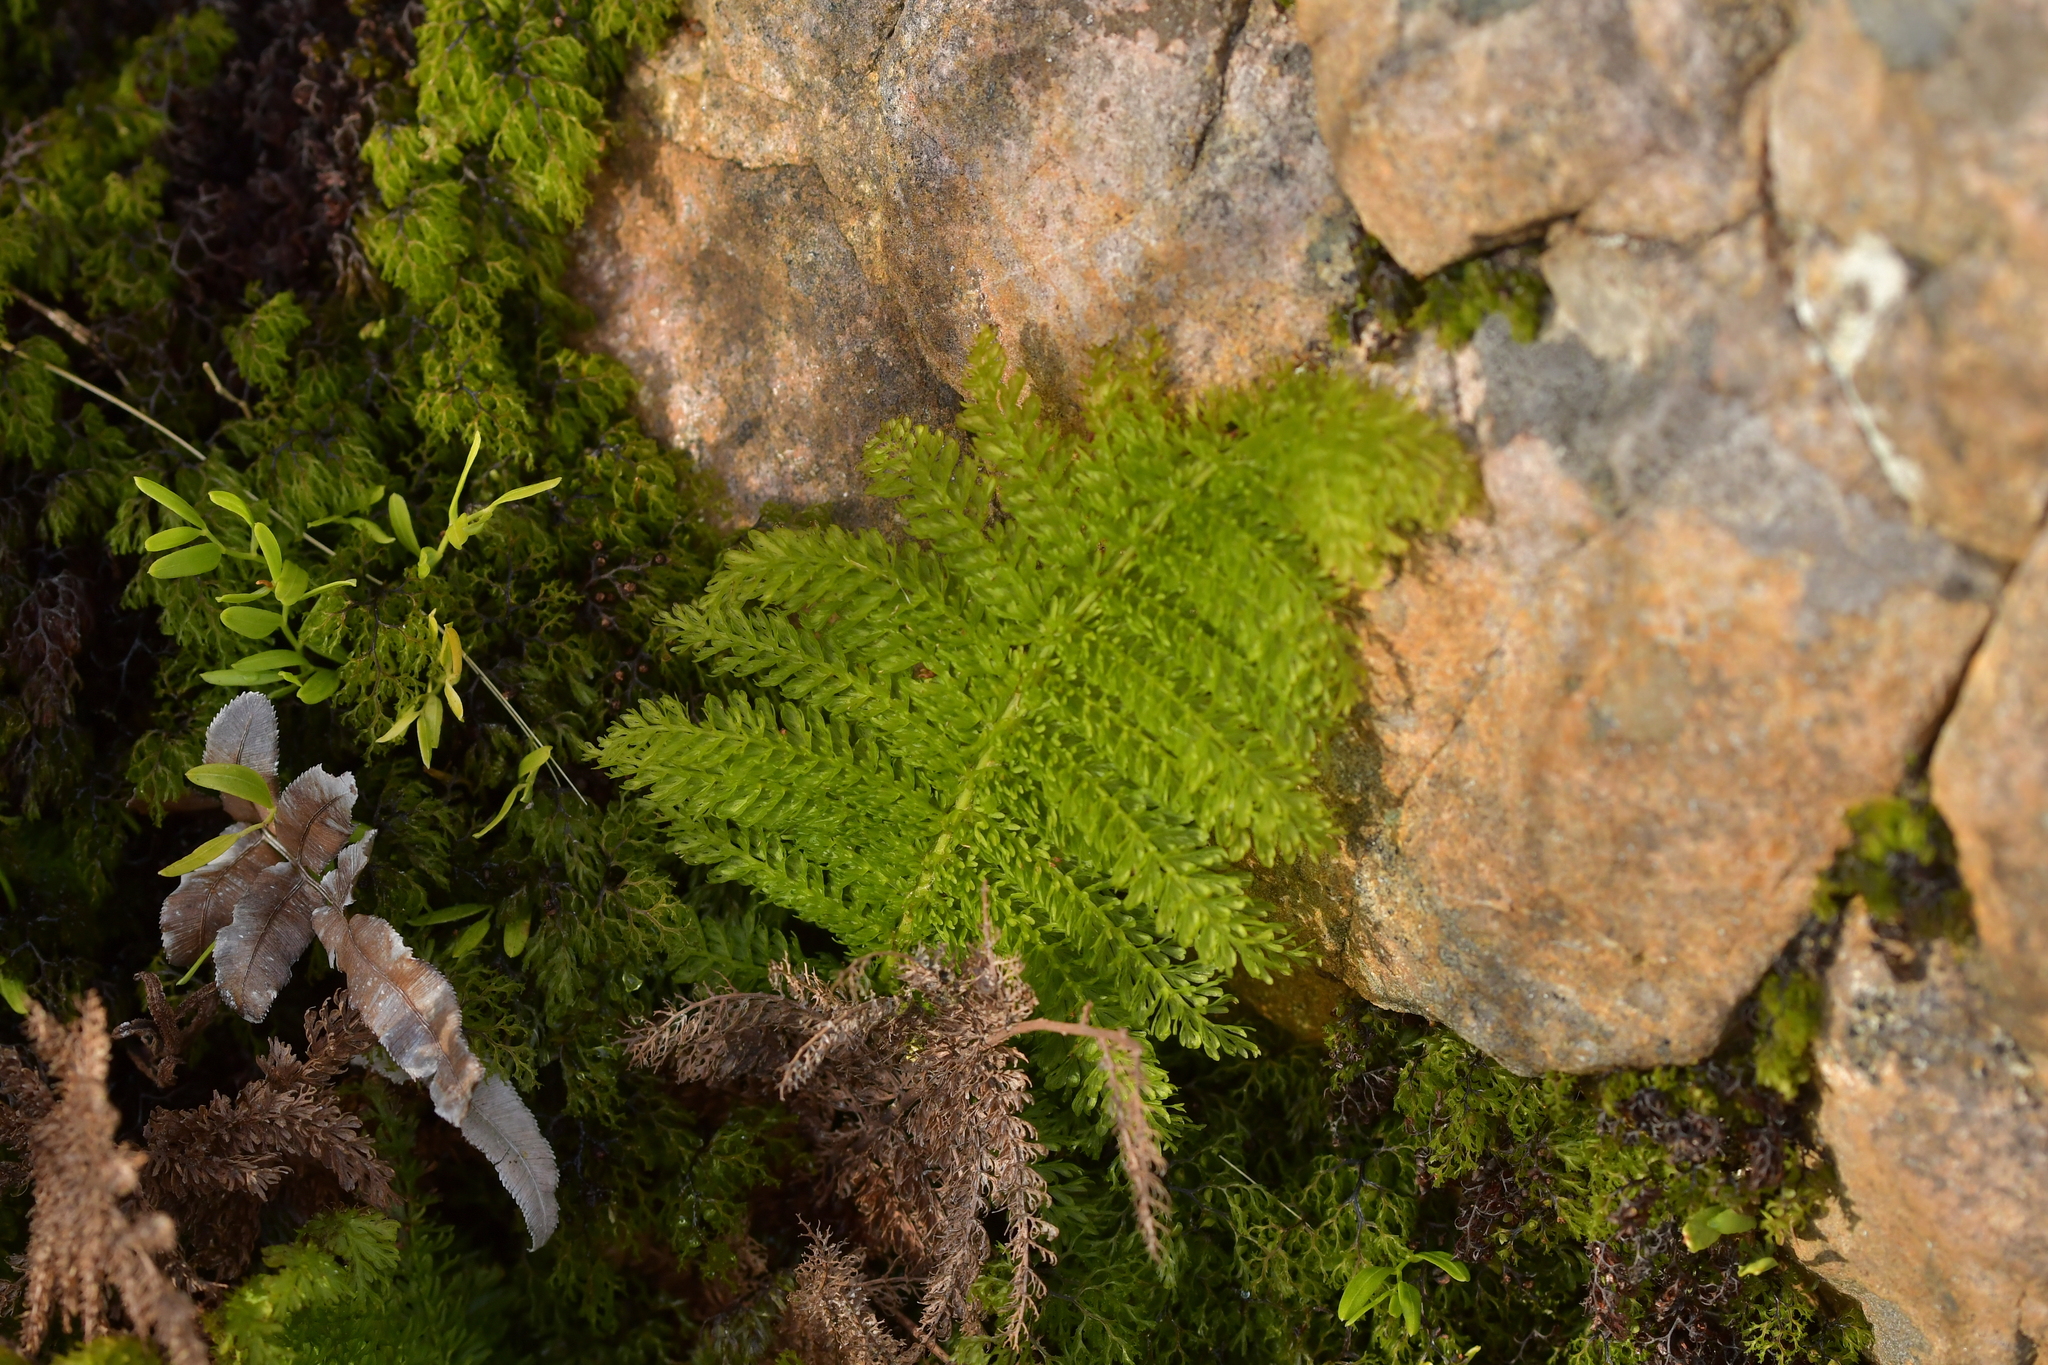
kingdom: Plantae
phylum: Tracheophyta
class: Polypodiopsida
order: Osmundales
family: Osmundaceae
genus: Leptopteris
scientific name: Leptopteris superba
